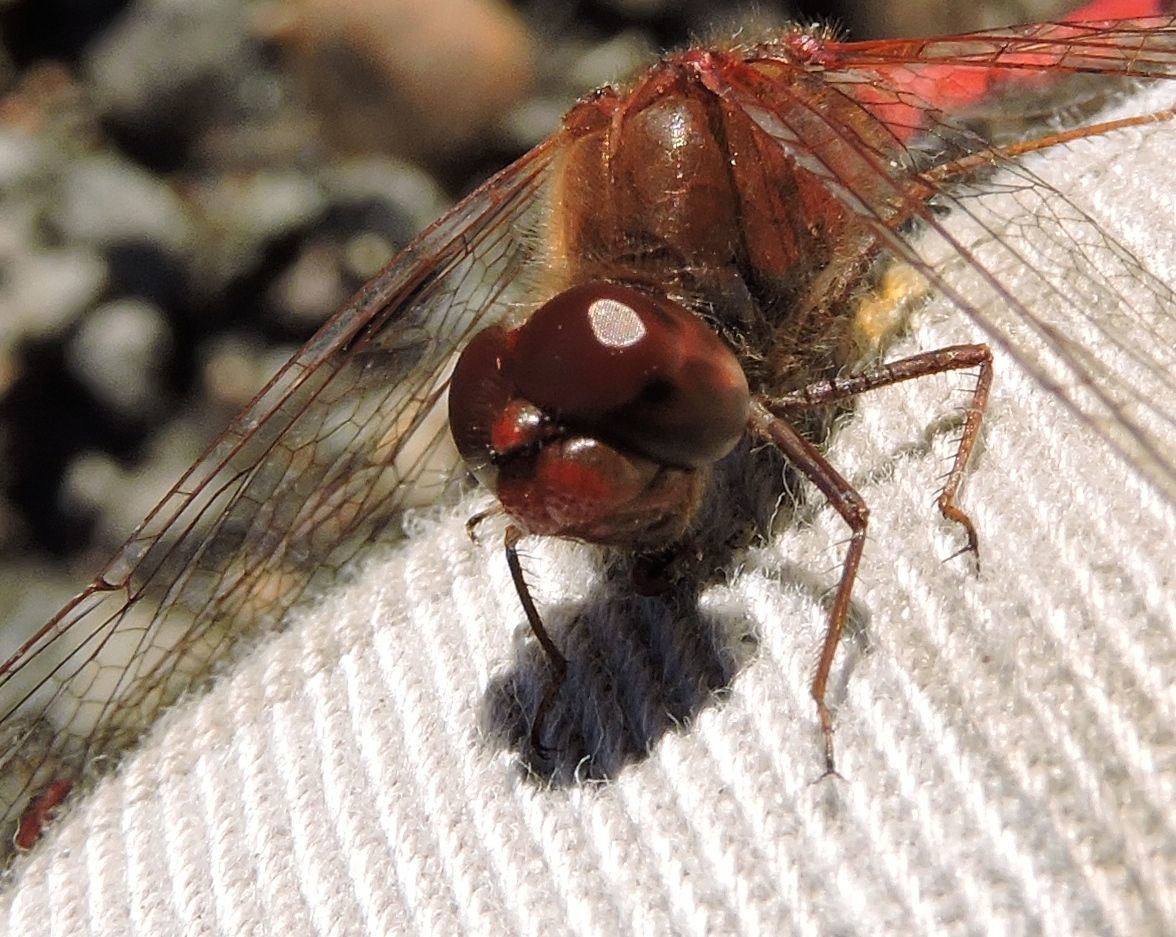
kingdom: Animalia
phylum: Arthropoda
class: Insecta
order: Odonata
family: Libellulidae
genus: Sympetrum
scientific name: Sympetrum vicinum
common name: Autumn meadowhawk
